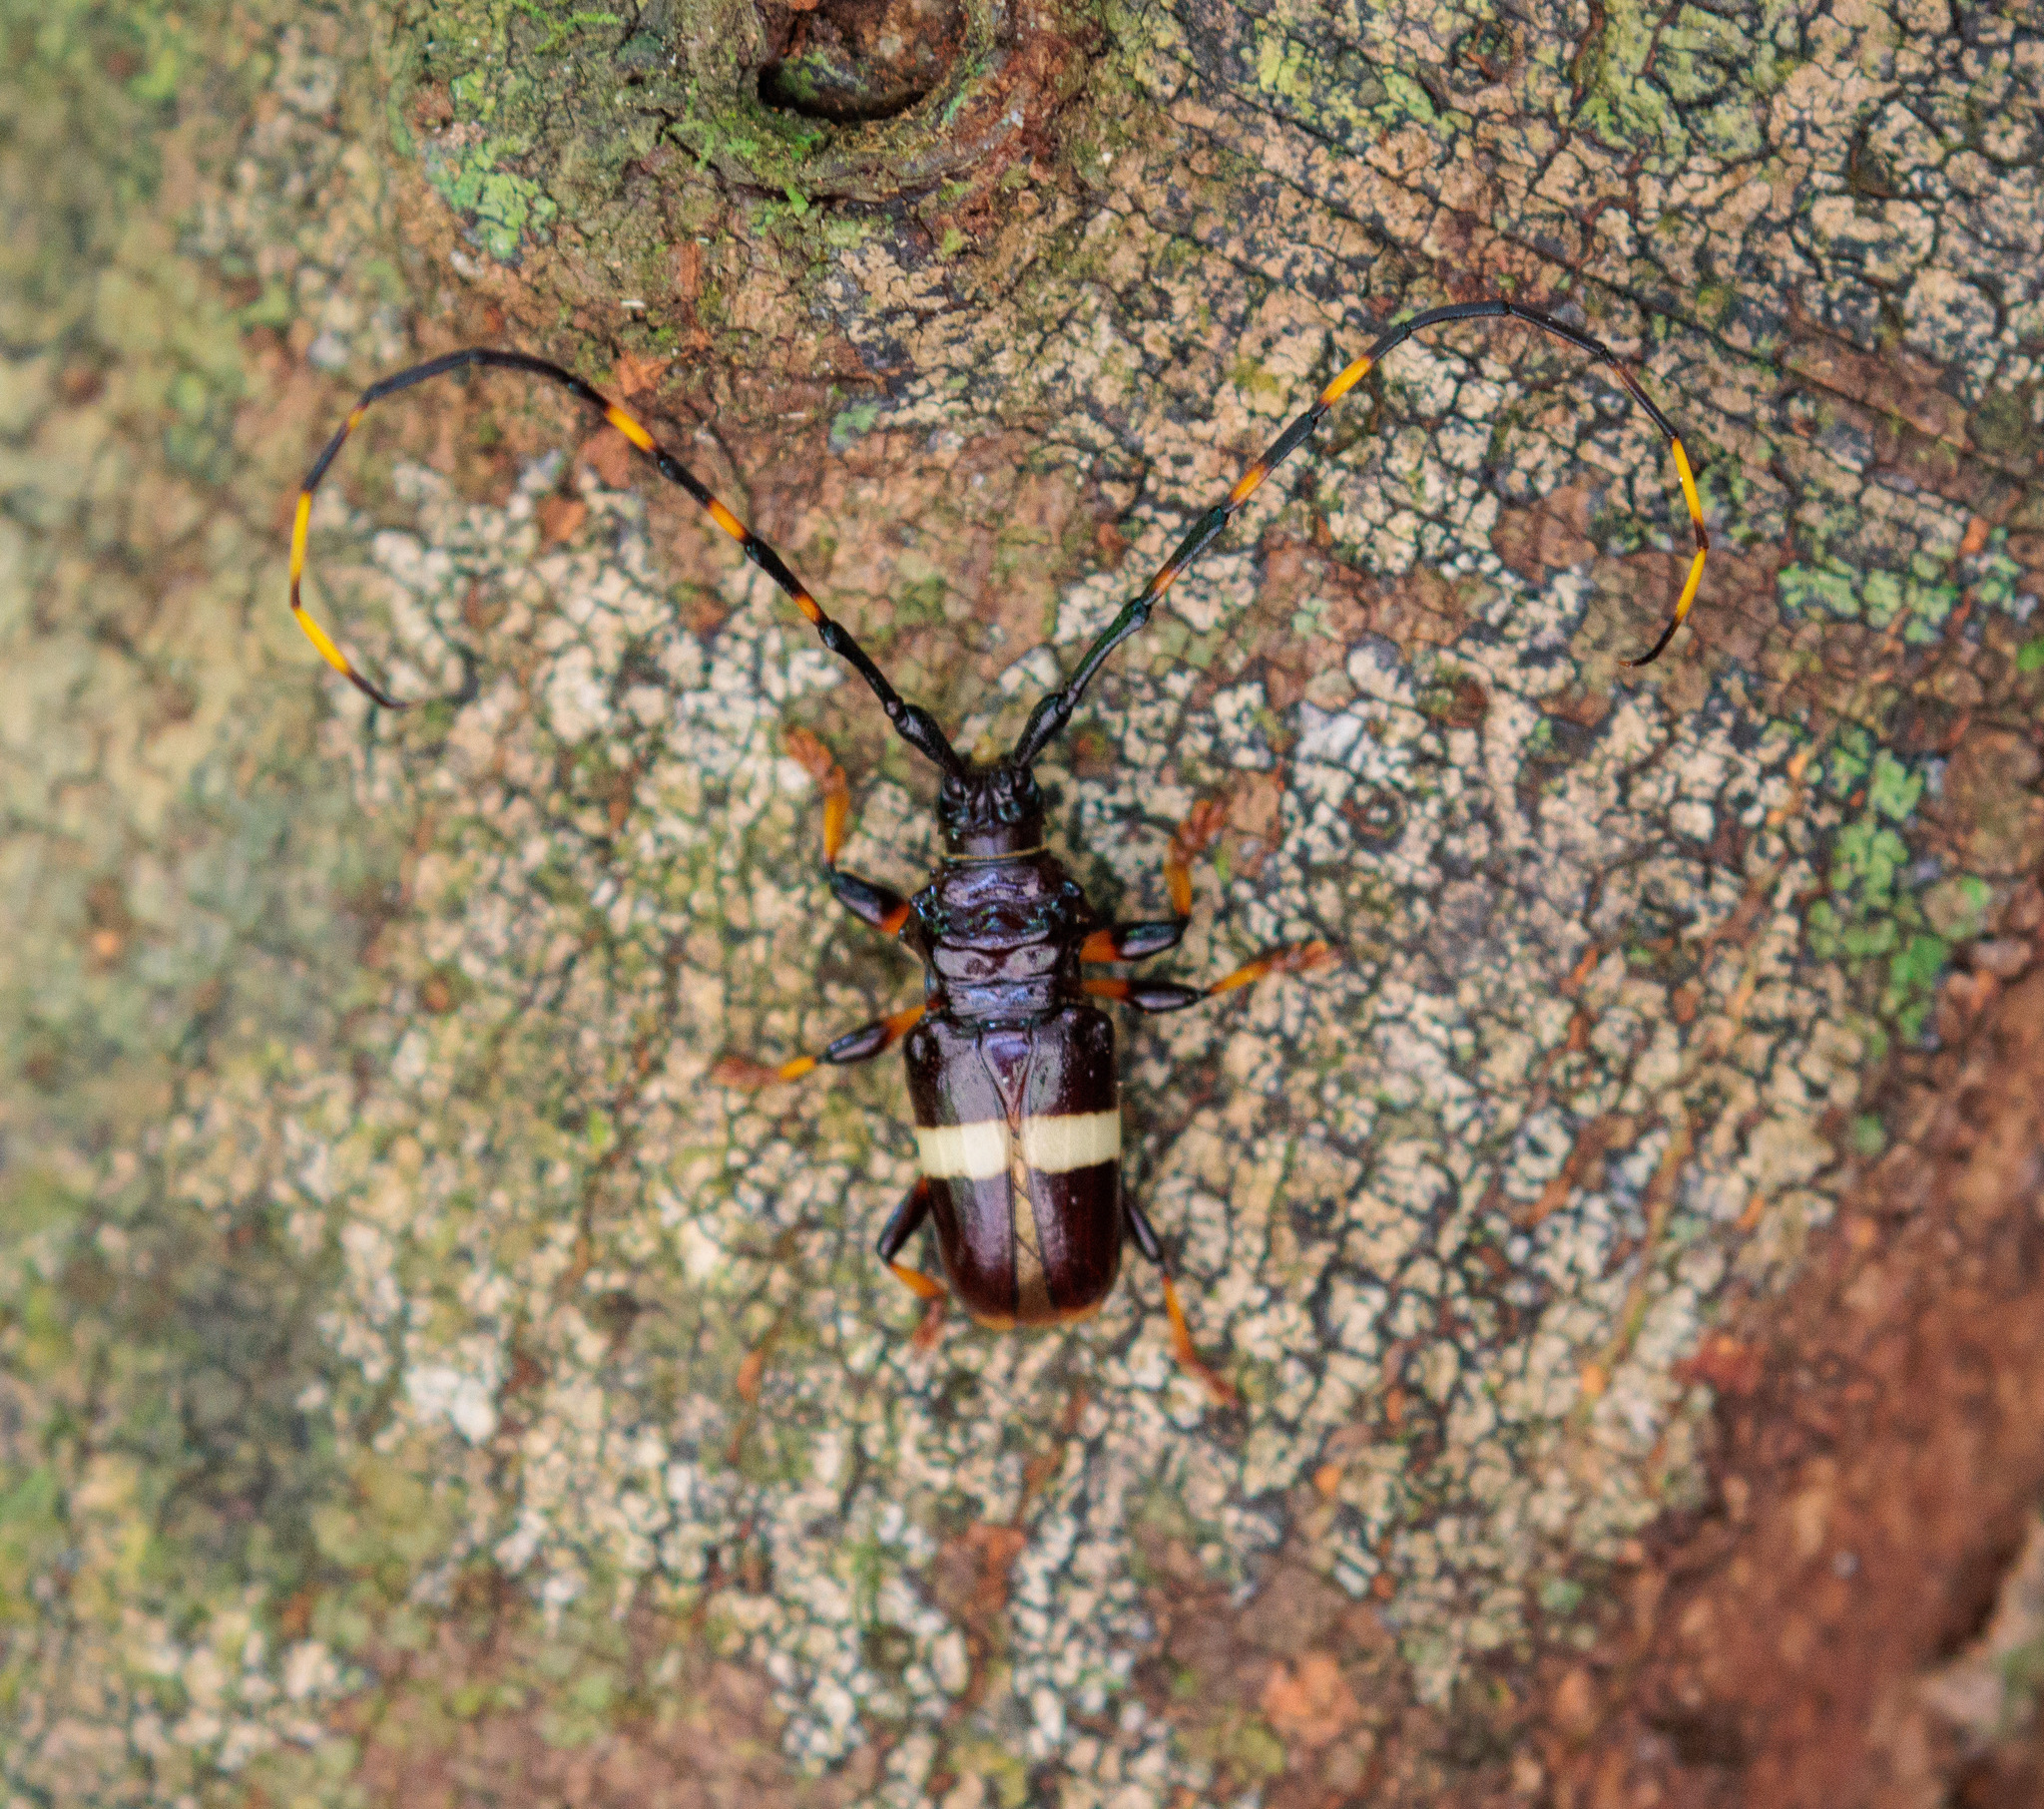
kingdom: Animalia
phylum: Arthropoda
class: Insecta
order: Coleoptera
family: Cerambycidae
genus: Trachyderes
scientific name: Trachyderes succinctus
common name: Mango longhorn
